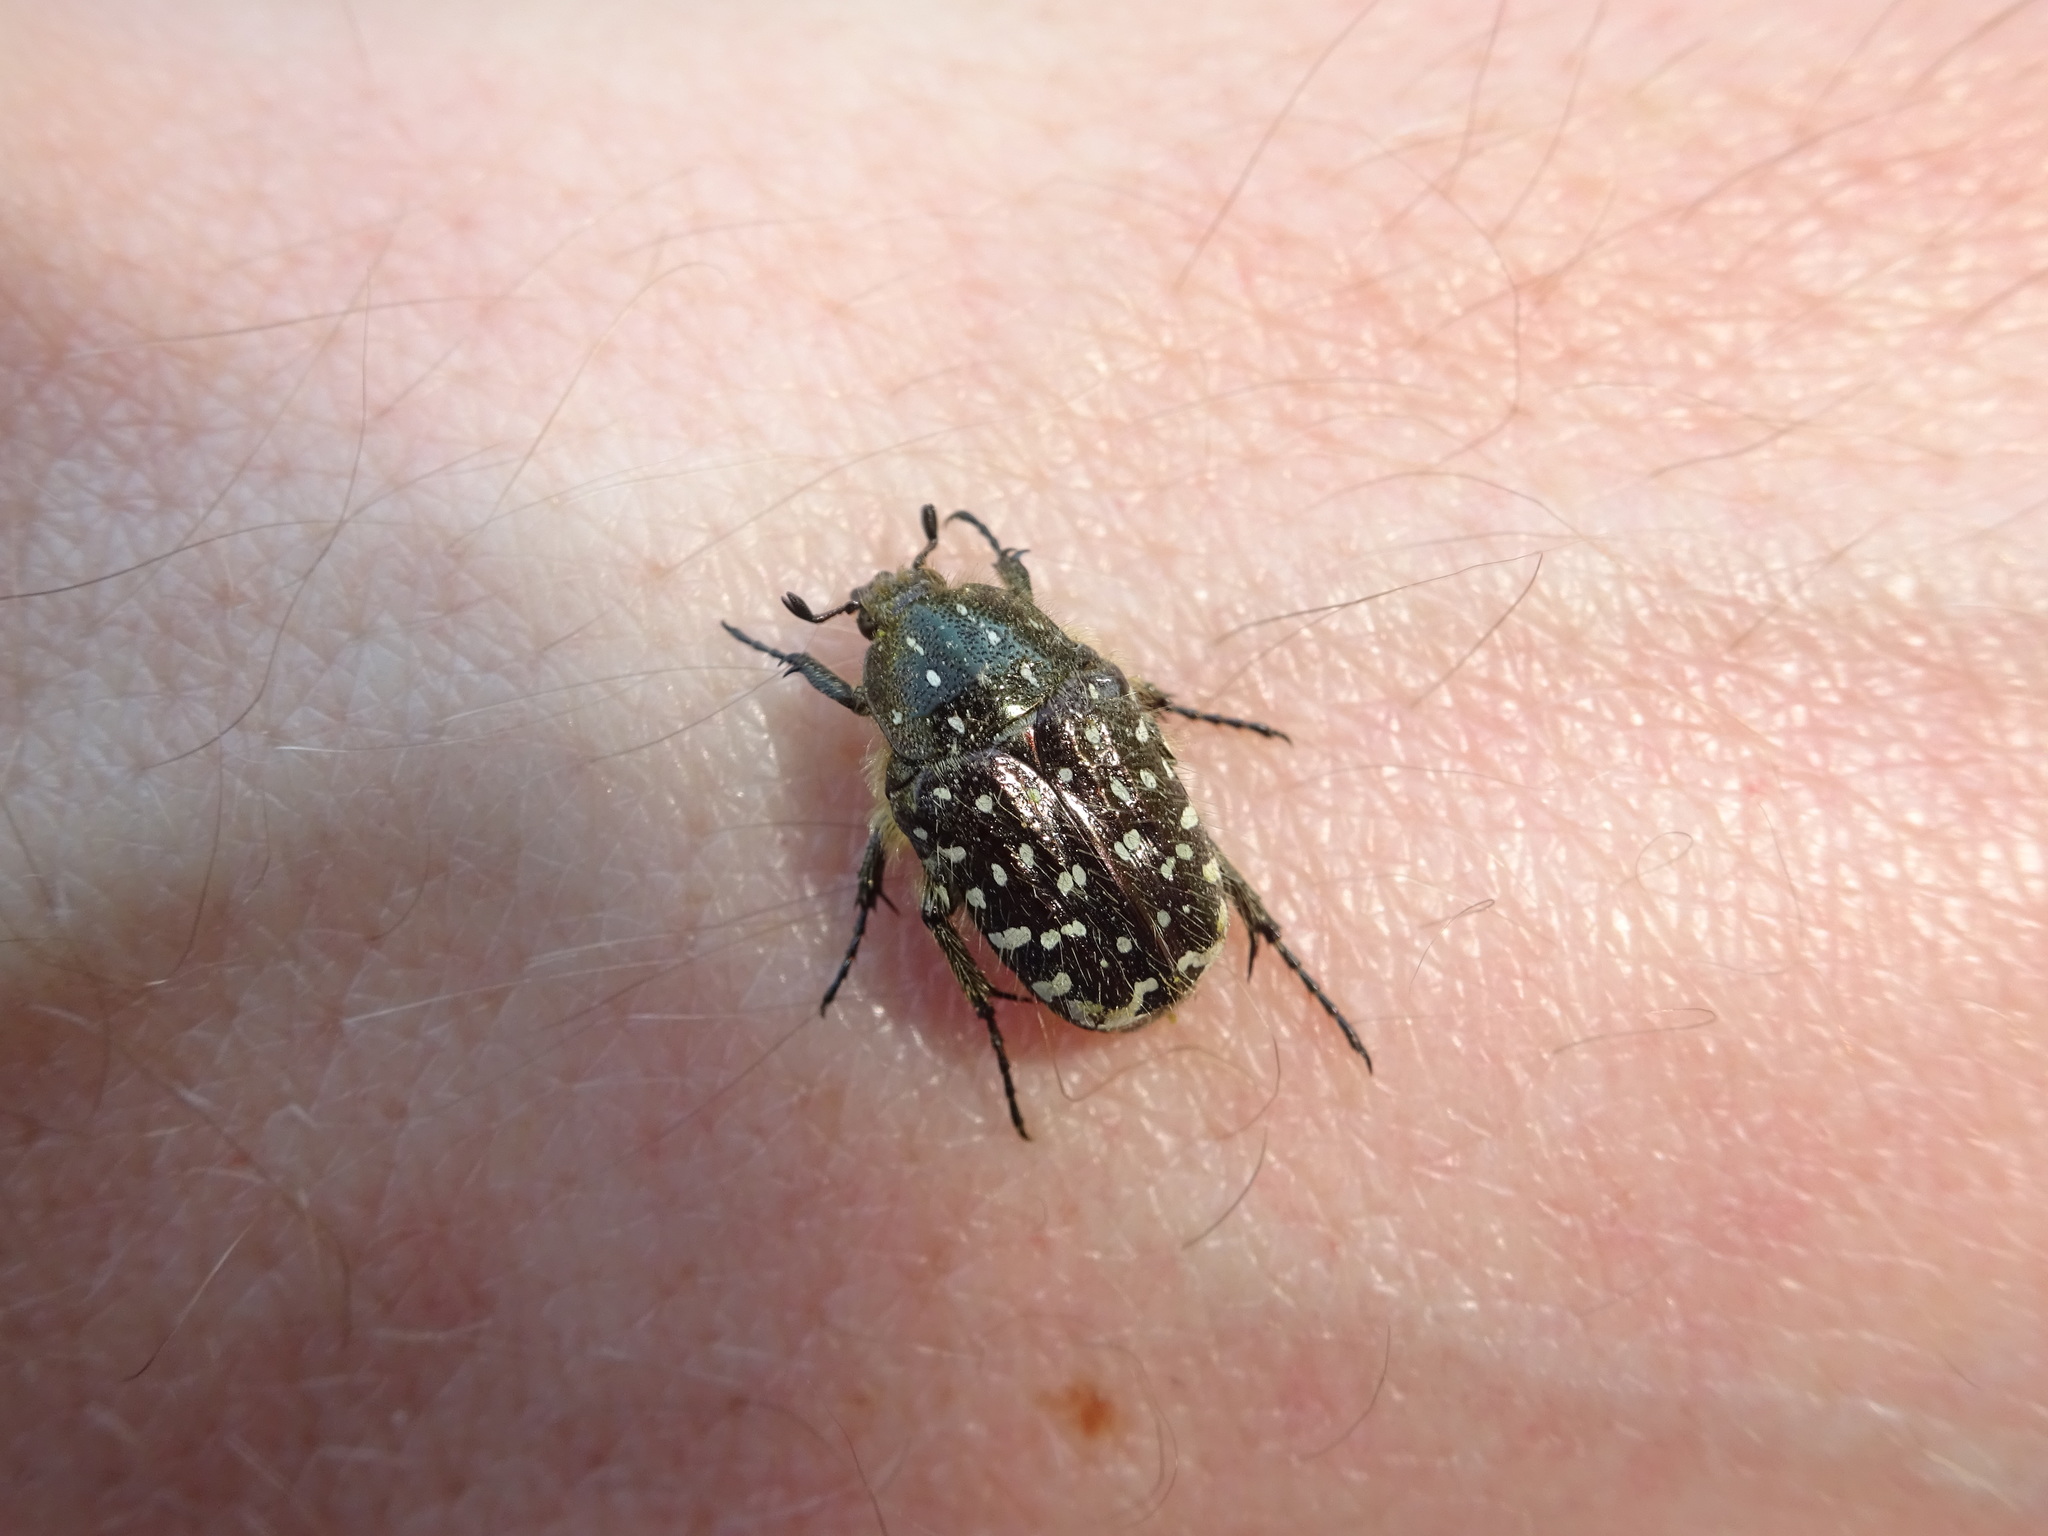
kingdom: Animalia
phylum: Arthropoda
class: Insecta
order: Coleoptera
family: Scarabaeidae
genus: Oxythyrea
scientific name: Oxythyrea funesta
